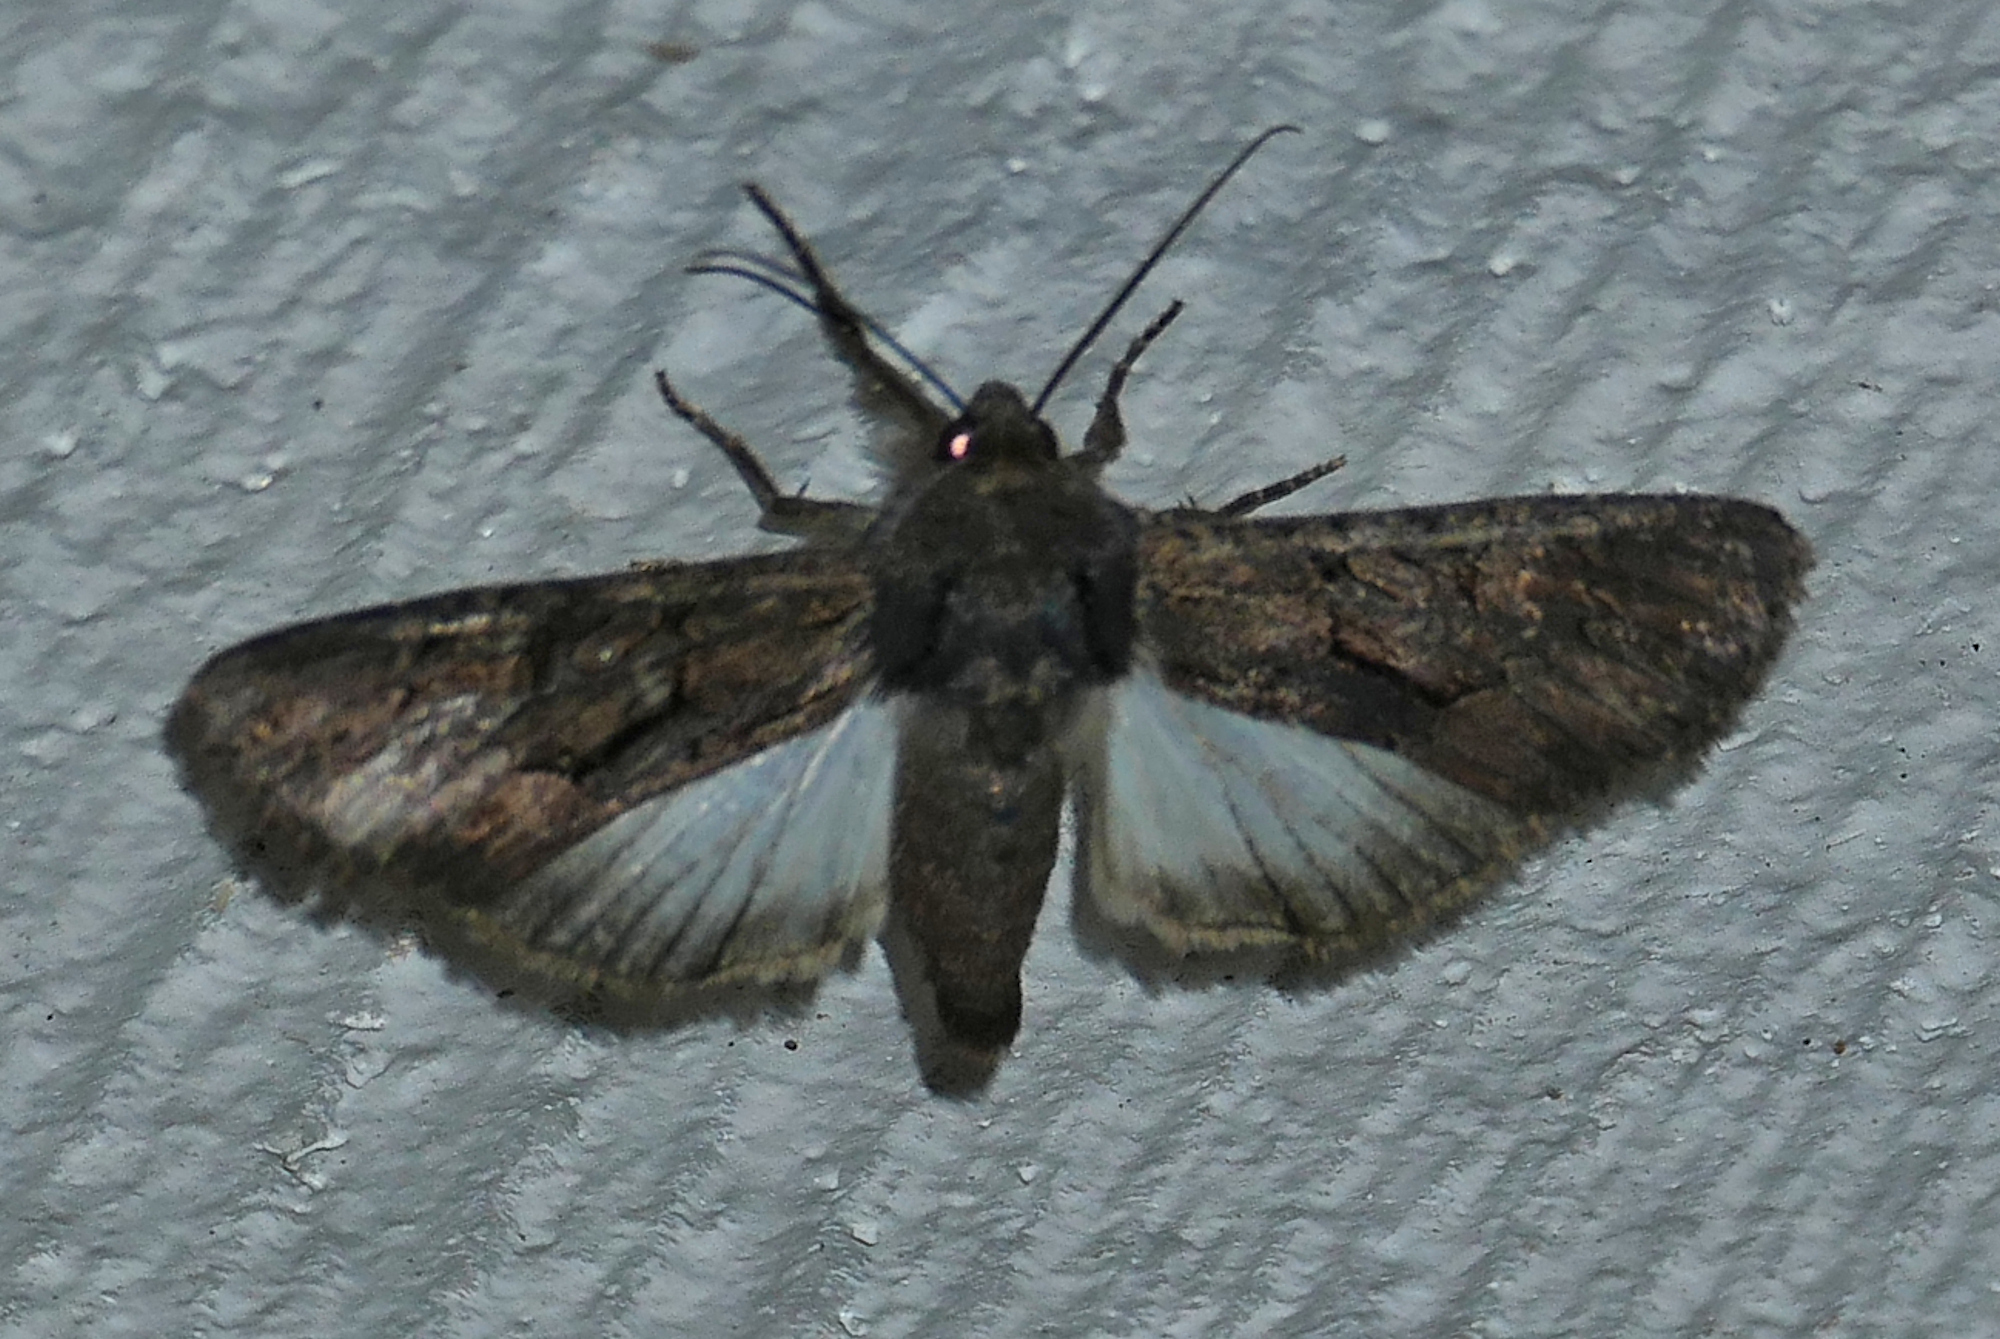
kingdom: Animalia
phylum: Arthropoda
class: Insecta
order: Lepidoptera
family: Noctuidae
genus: Apamea
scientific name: Apamea burgessi
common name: Burgess' apamea moth
